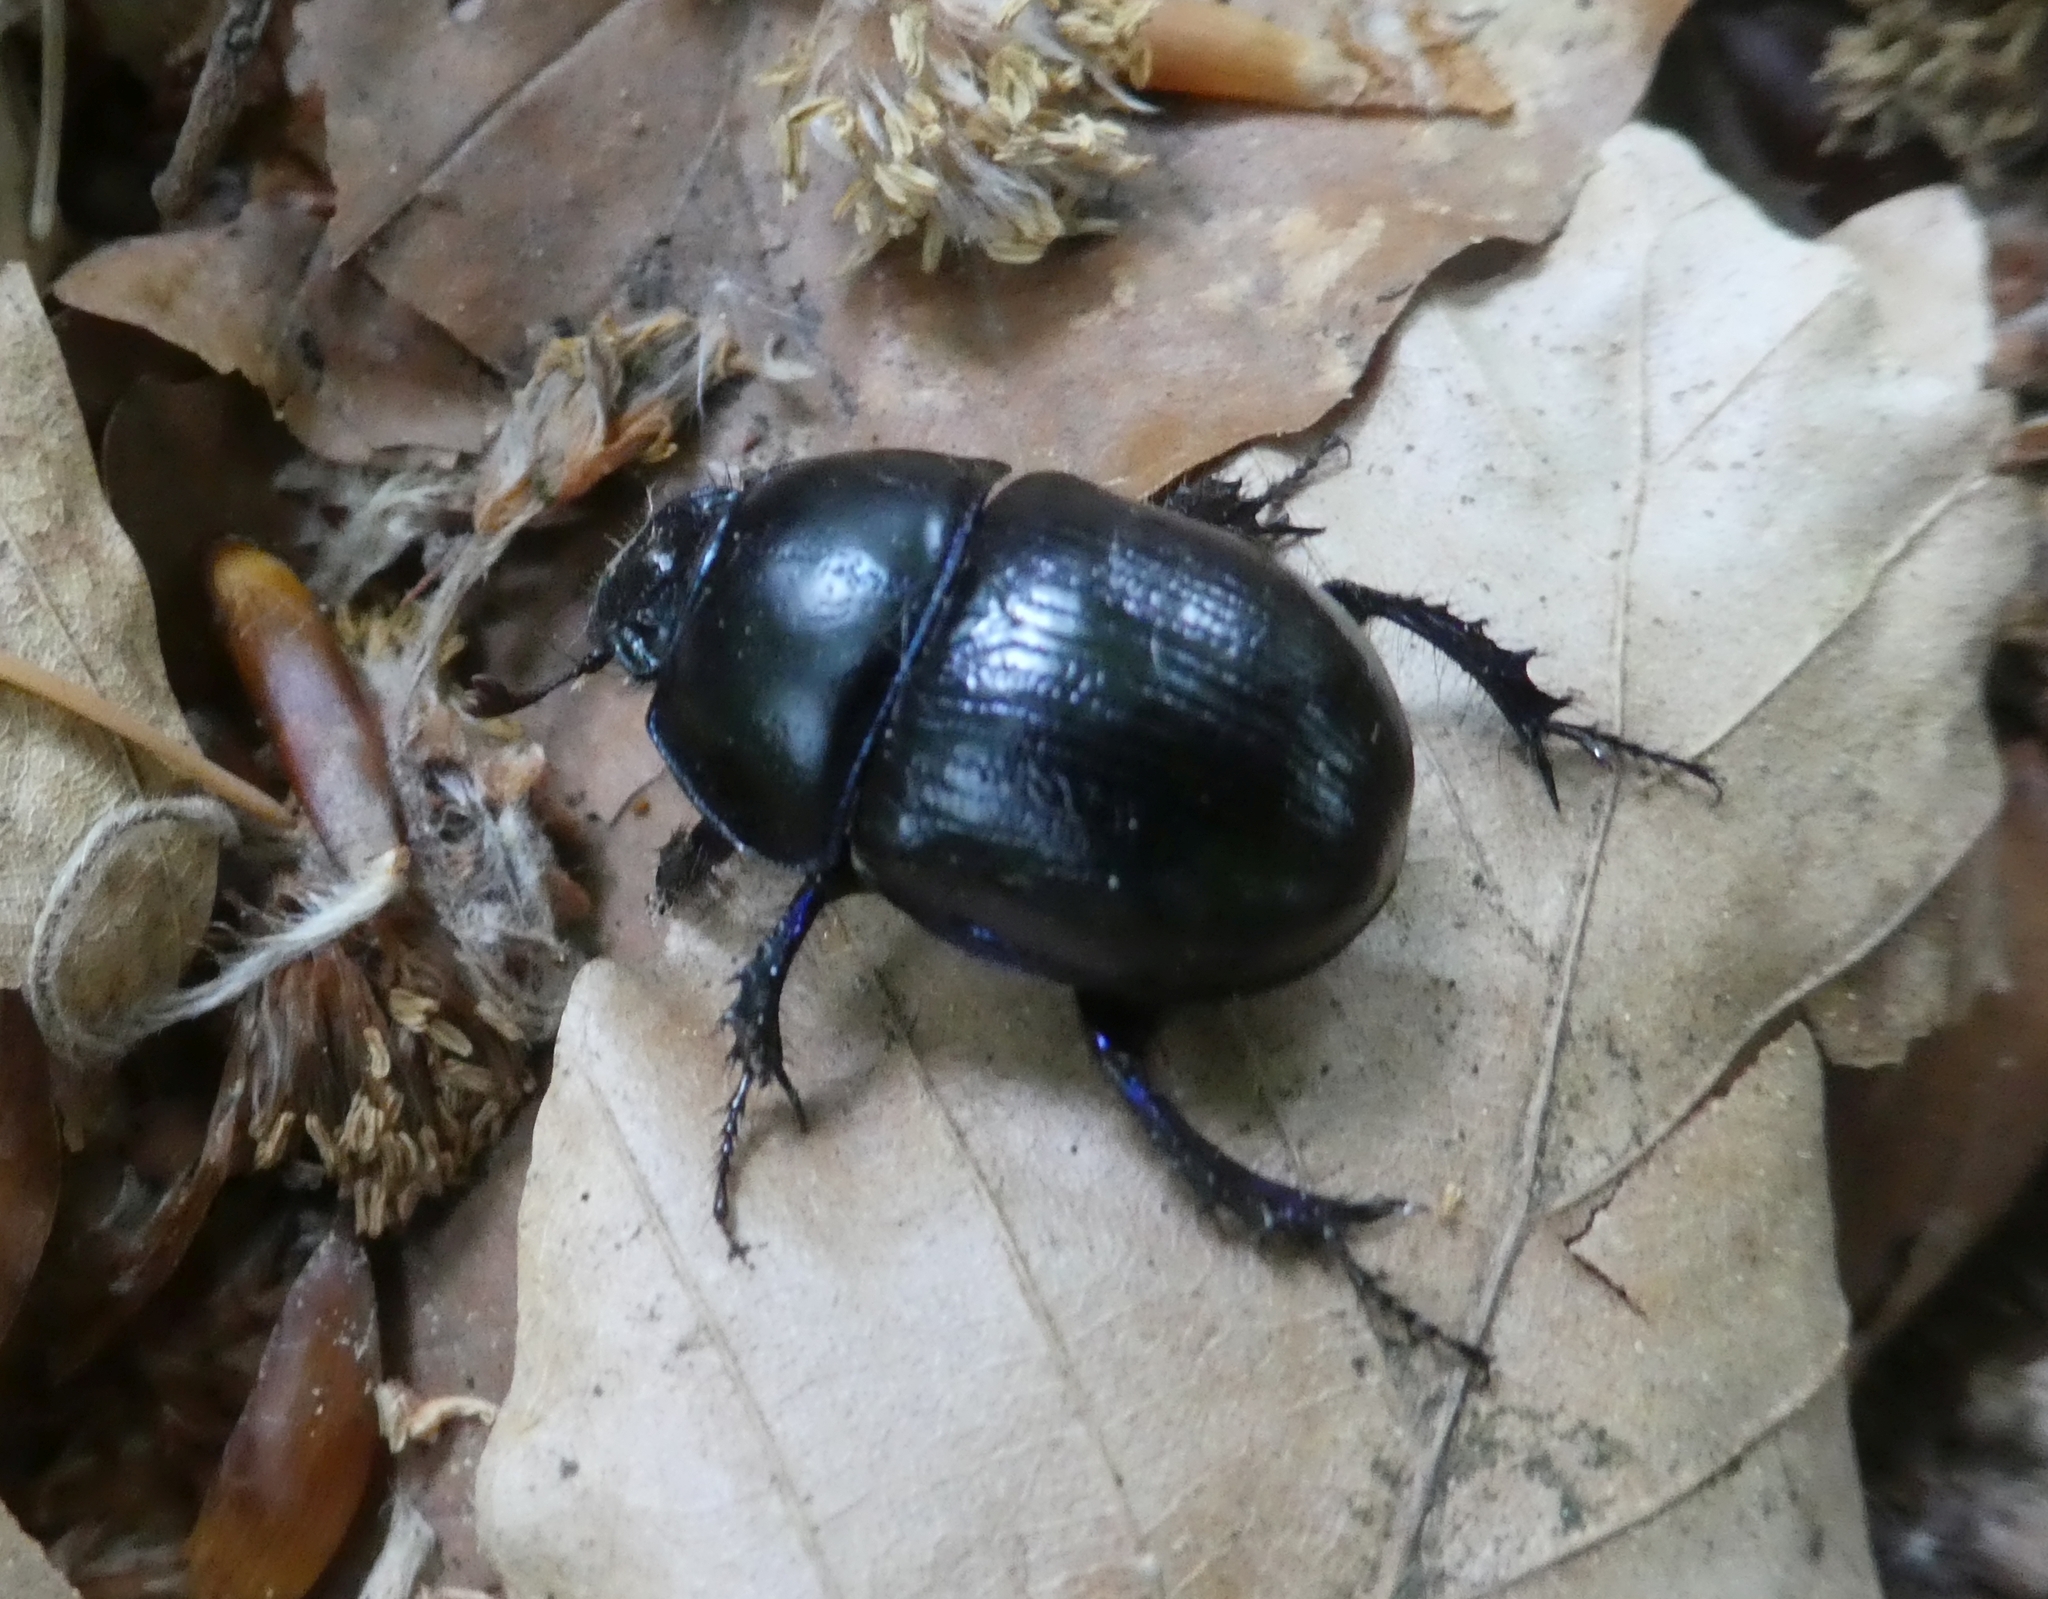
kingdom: Animalia
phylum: Arthropoda
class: Insecta
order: Coleoptera
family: Geotrupidae
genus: Anoplotrupes
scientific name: Anoplotrupes stercorosus
